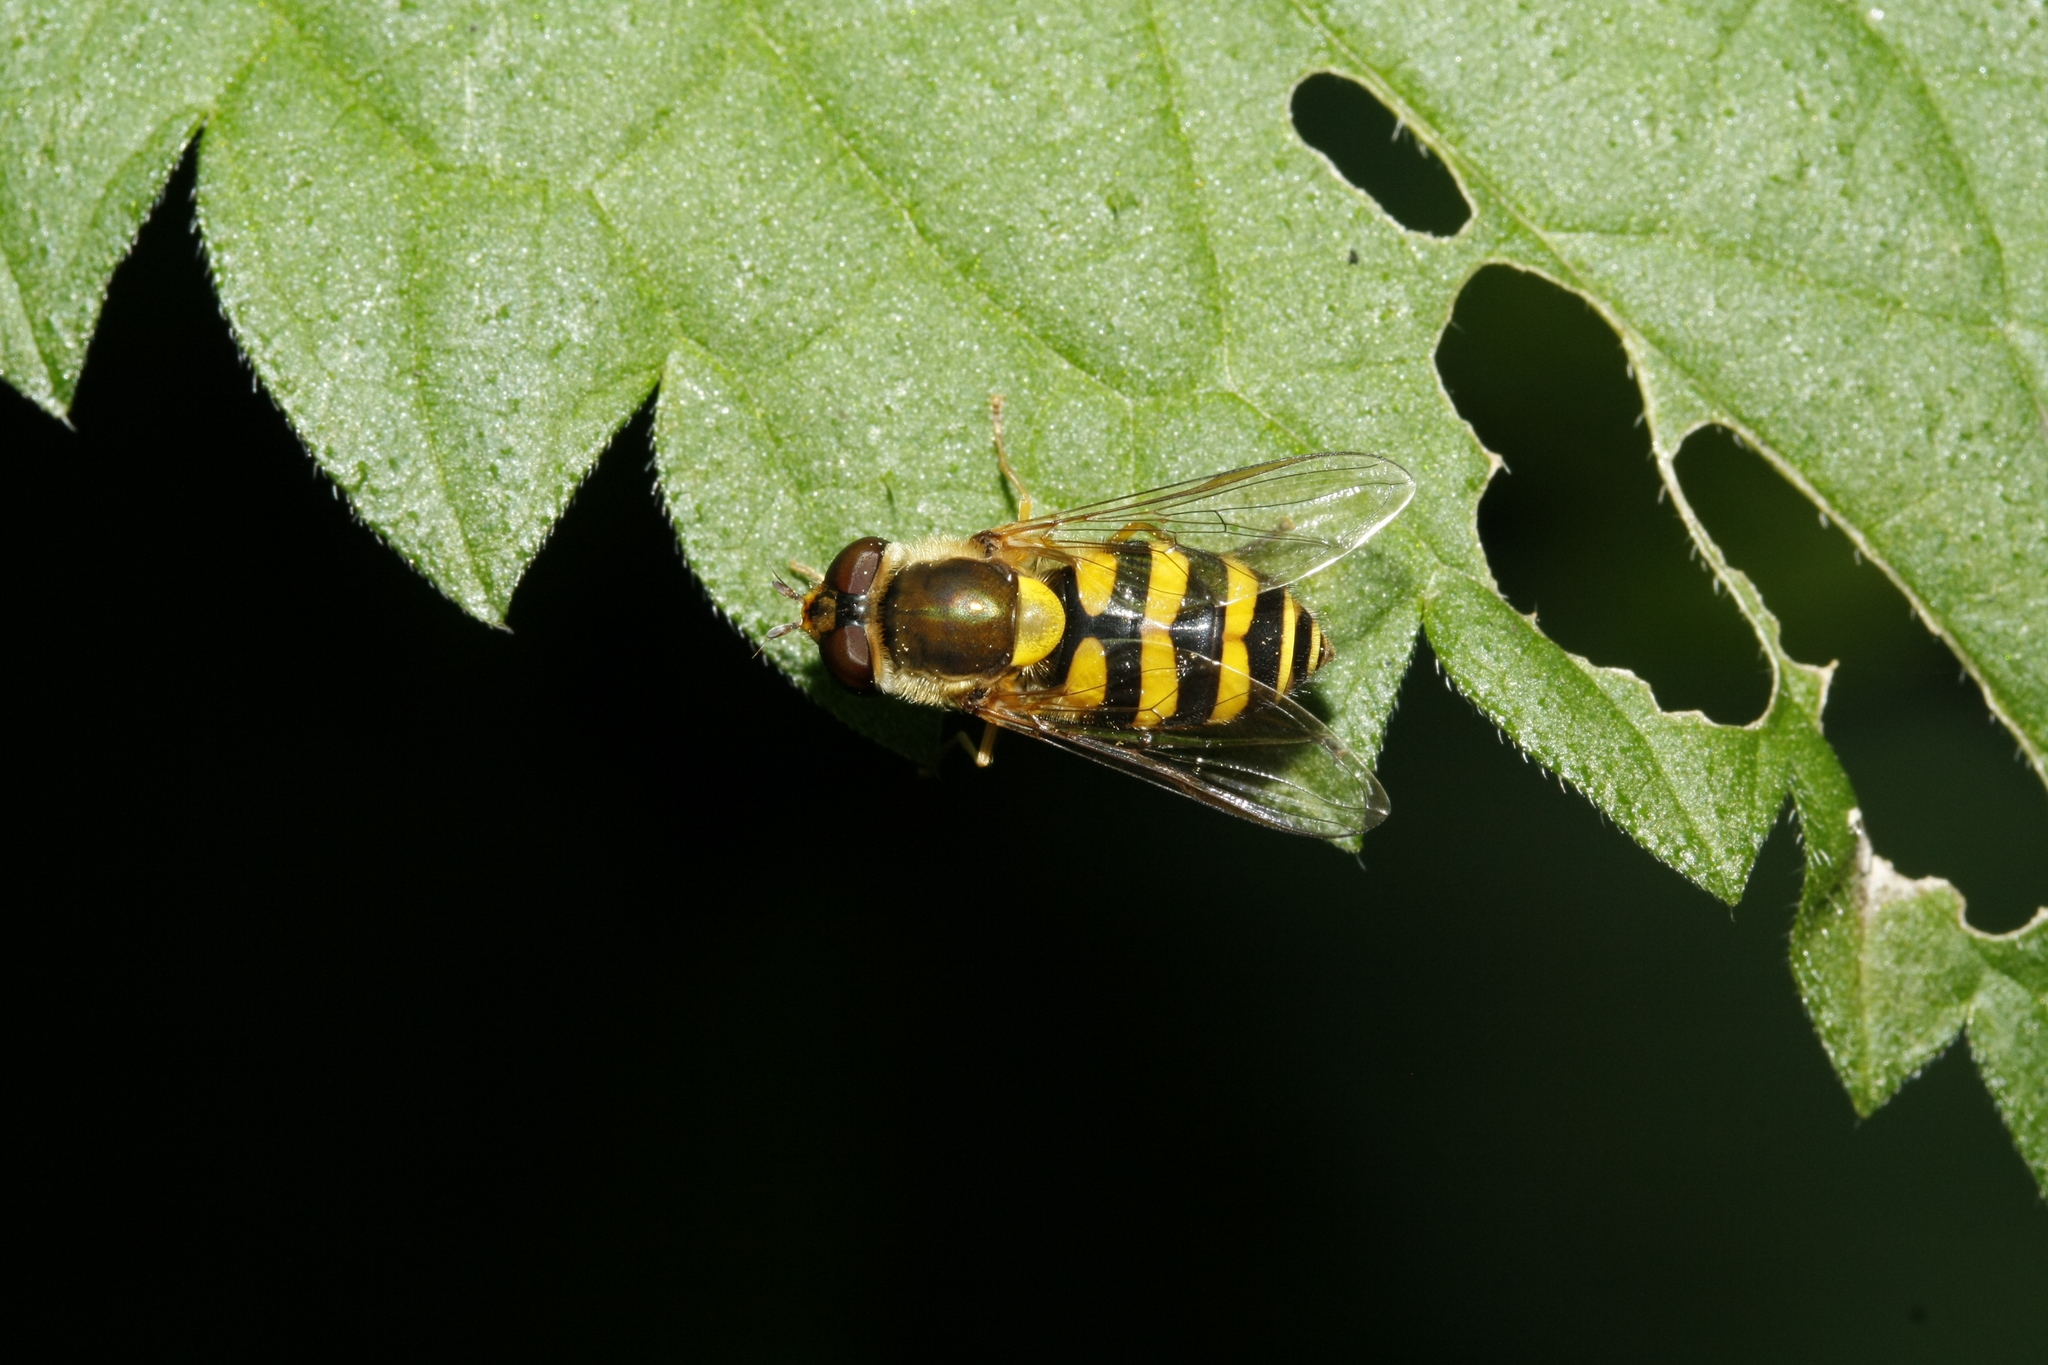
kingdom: Animalia
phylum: Arthropoda
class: Insecta
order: Diptera
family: Syrphidae
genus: Syrphus
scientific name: Syrphus
